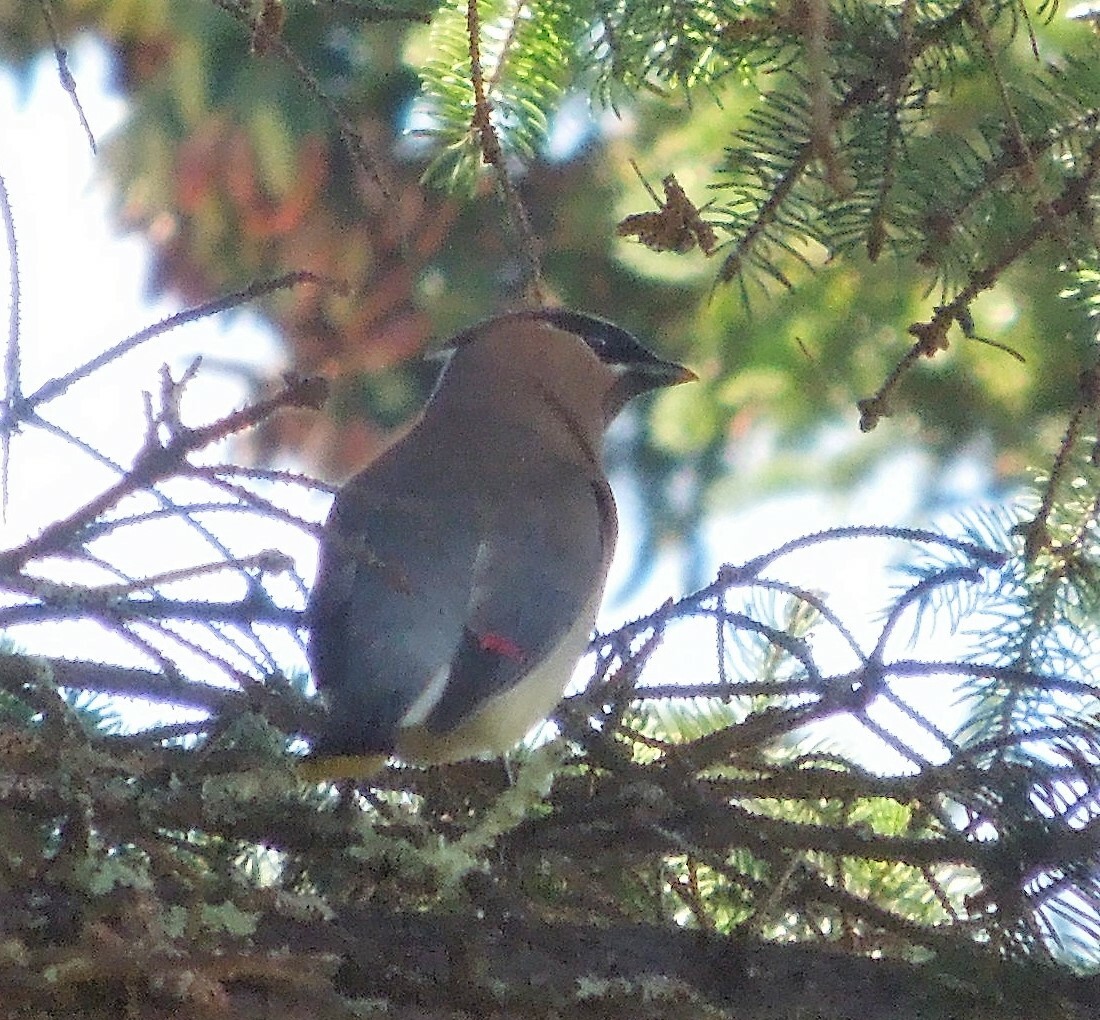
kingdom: Animalia
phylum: Chordata
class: Aves
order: Passeriformes
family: Bombycillidae
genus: Bombycilla
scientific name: Bombycilla cedrorum
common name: Cedar waxwing
